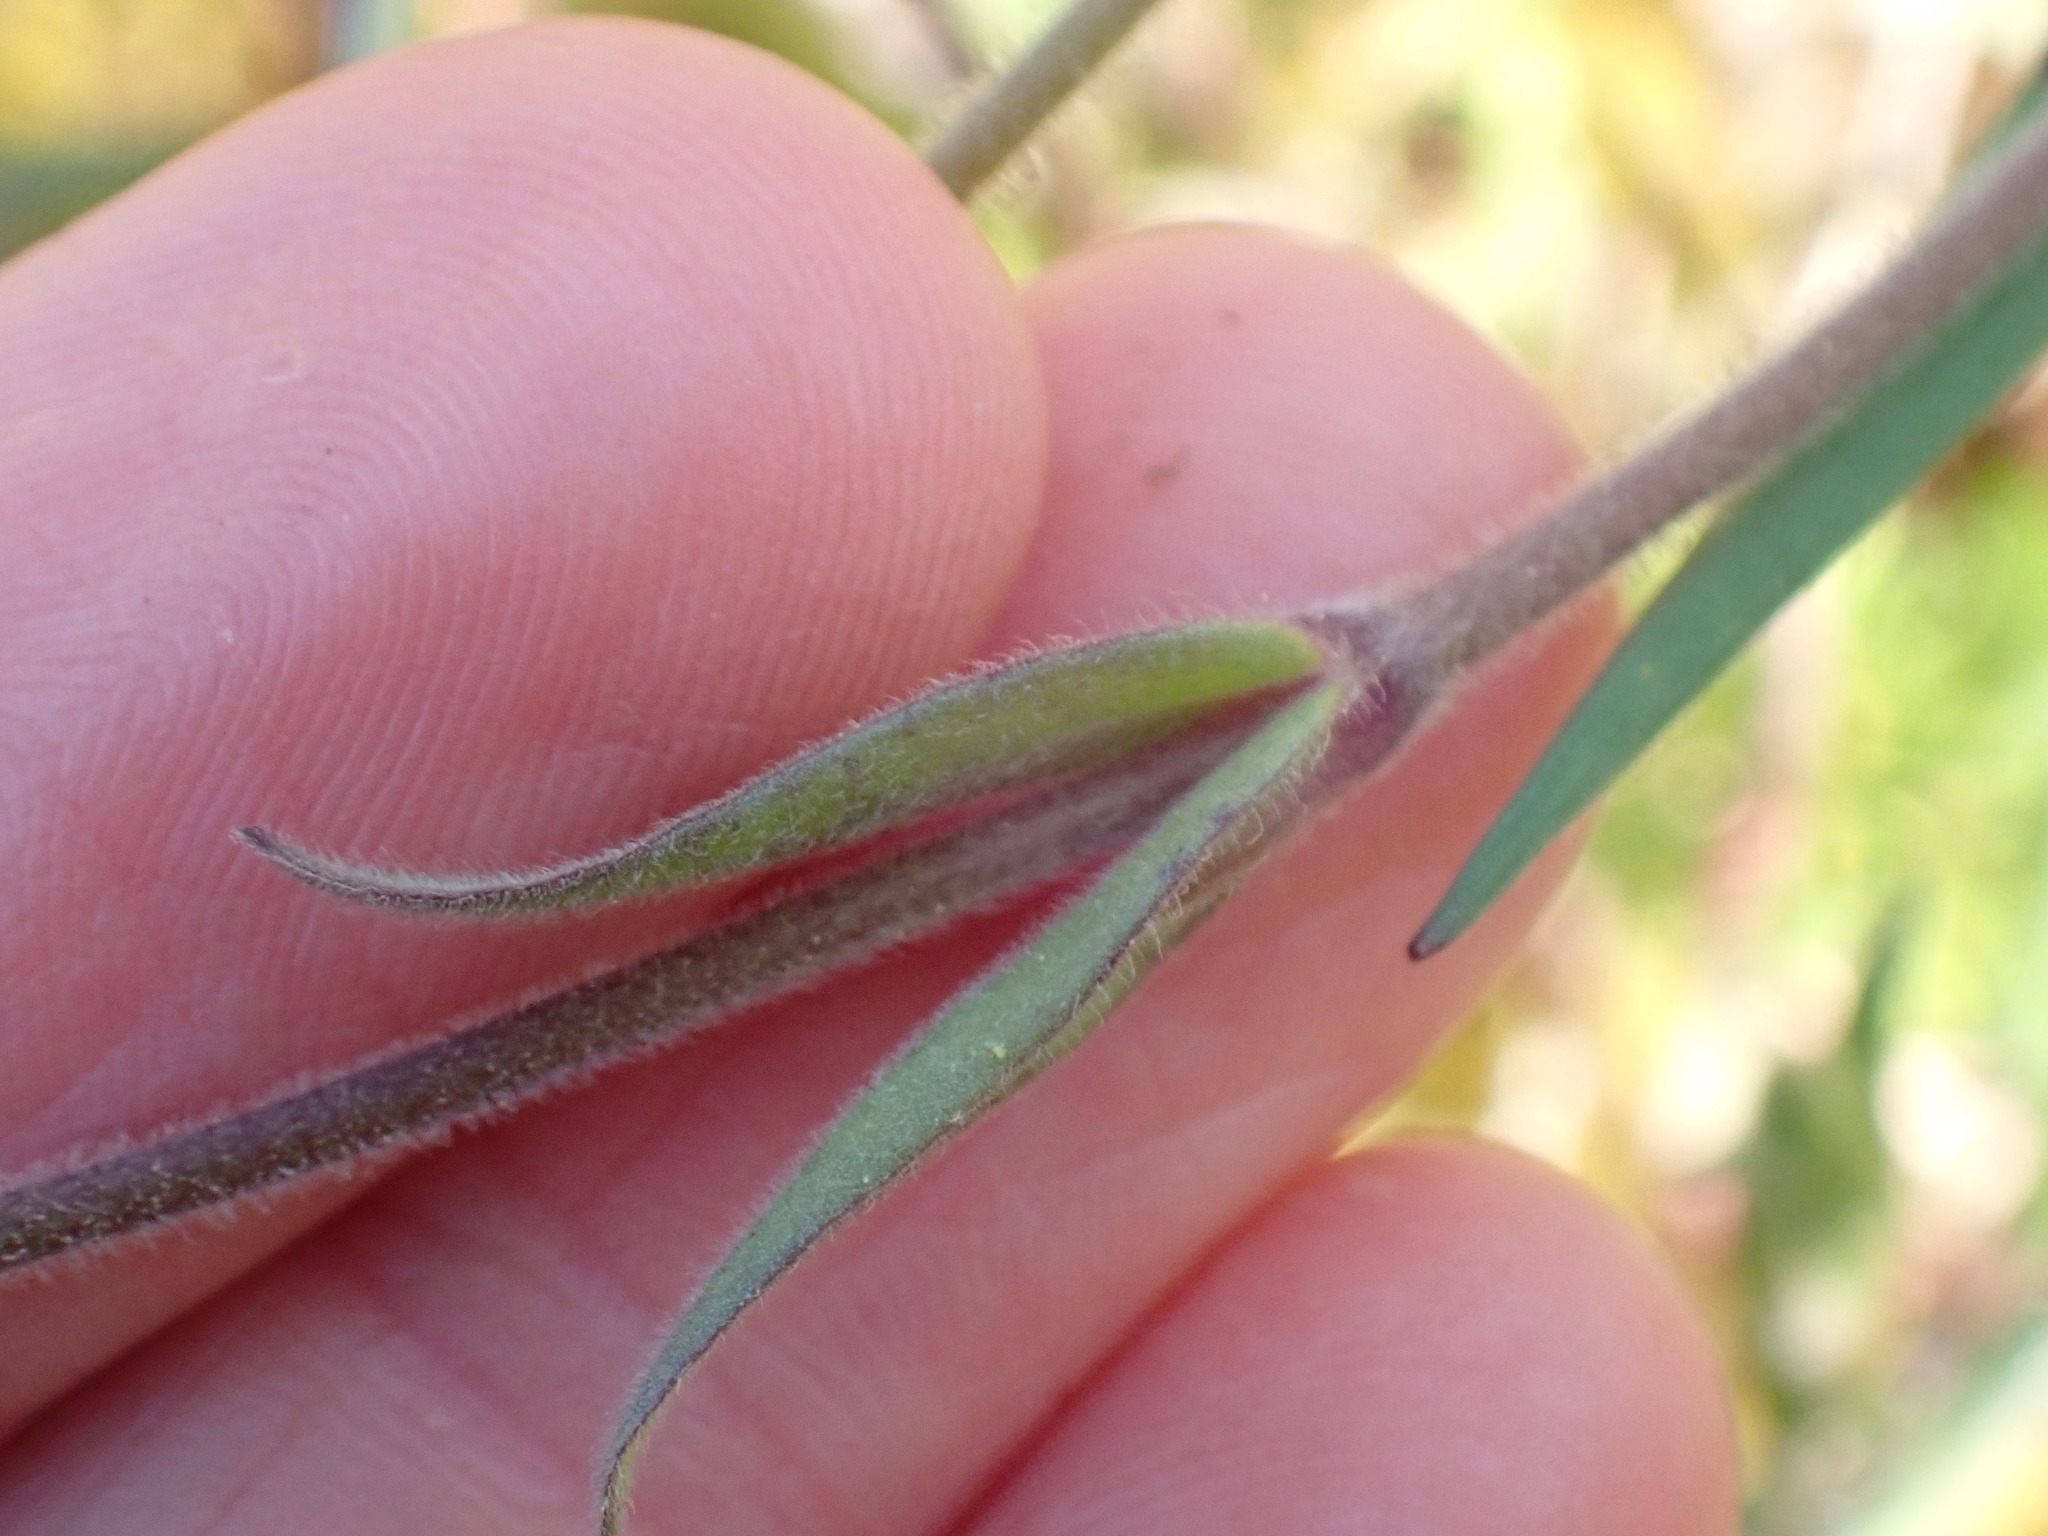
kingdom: Plantae
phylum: Tracheophyta
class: Magnoliopsida
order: Caryophyllales
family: Caryophyllaceae
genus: Cerastium
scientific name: Cerastium arvense
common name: Field mouse-ear
